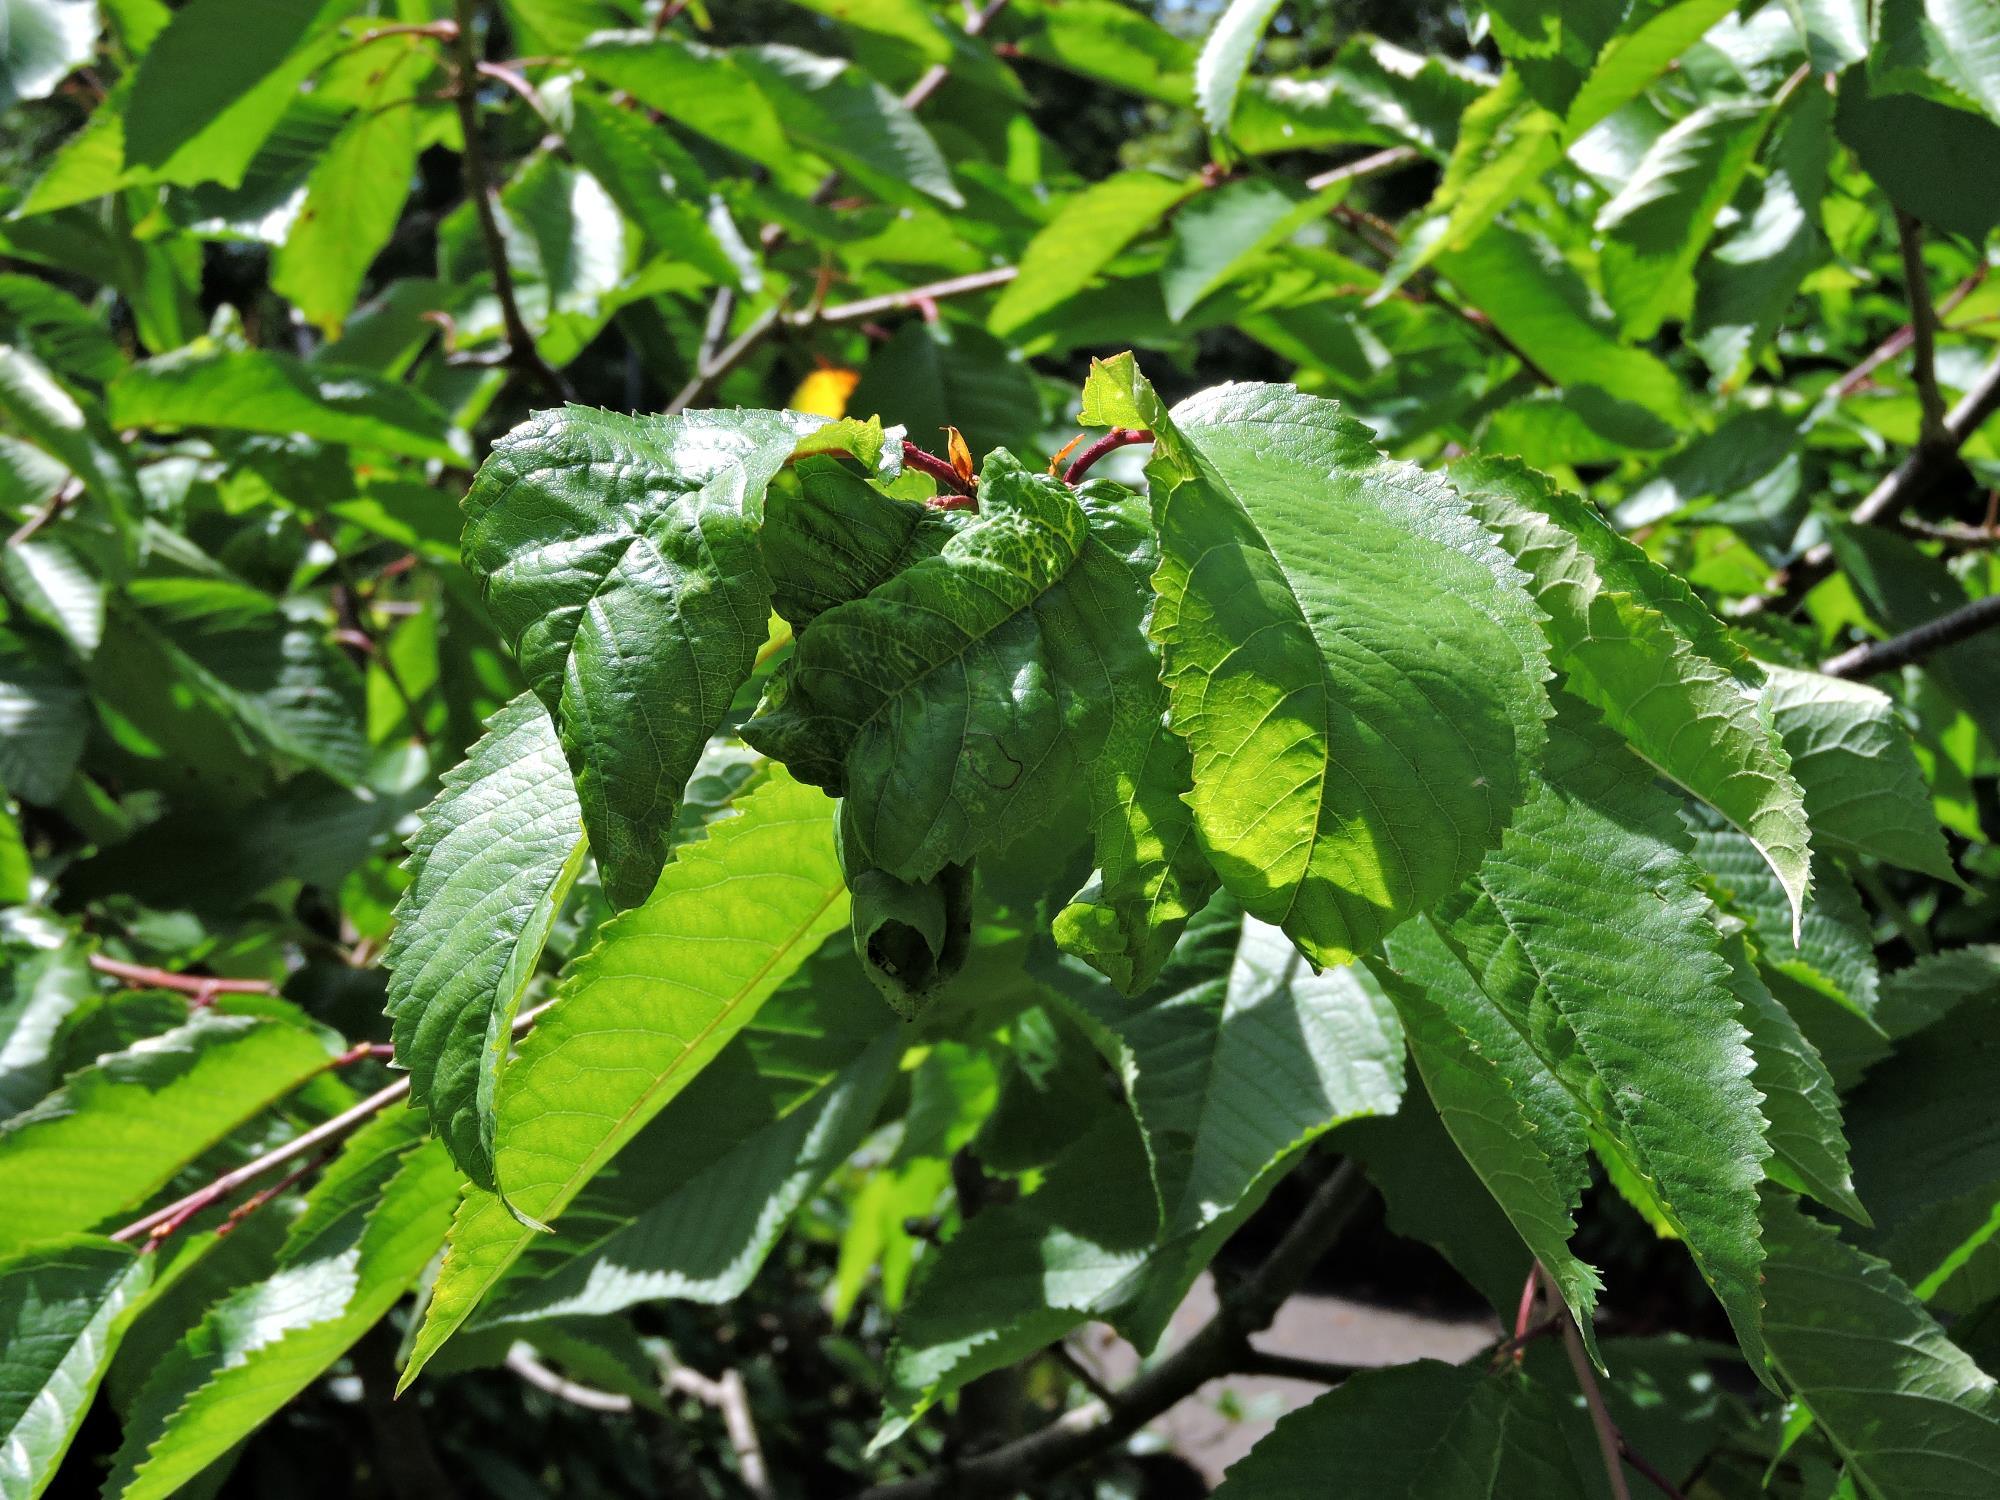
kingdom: Animalia
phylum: Arthropoda
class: Insecta
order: Hemiptera
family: Aphididae
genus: Myzus
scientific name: Myzus cerasi
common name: Black cherry aphid
